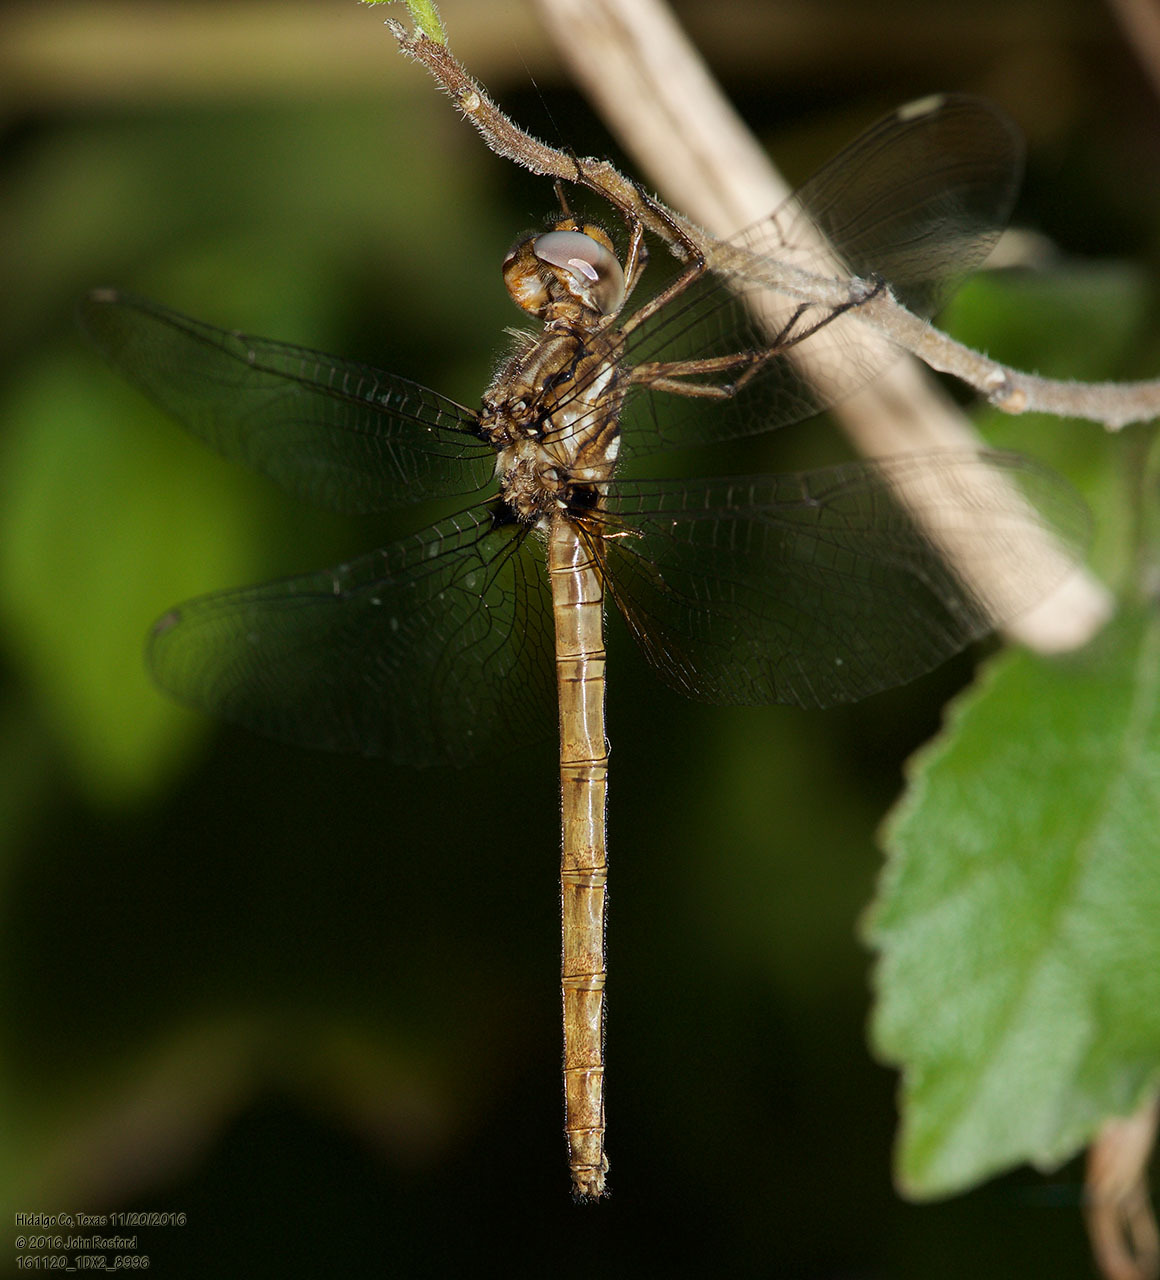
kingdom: Animalia
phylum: Arthropoda
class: Insecta
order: Odonata
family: Libellulidae
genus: Macrothemis
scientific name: Macrothemis inacuta
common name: Straw-colored sylph
